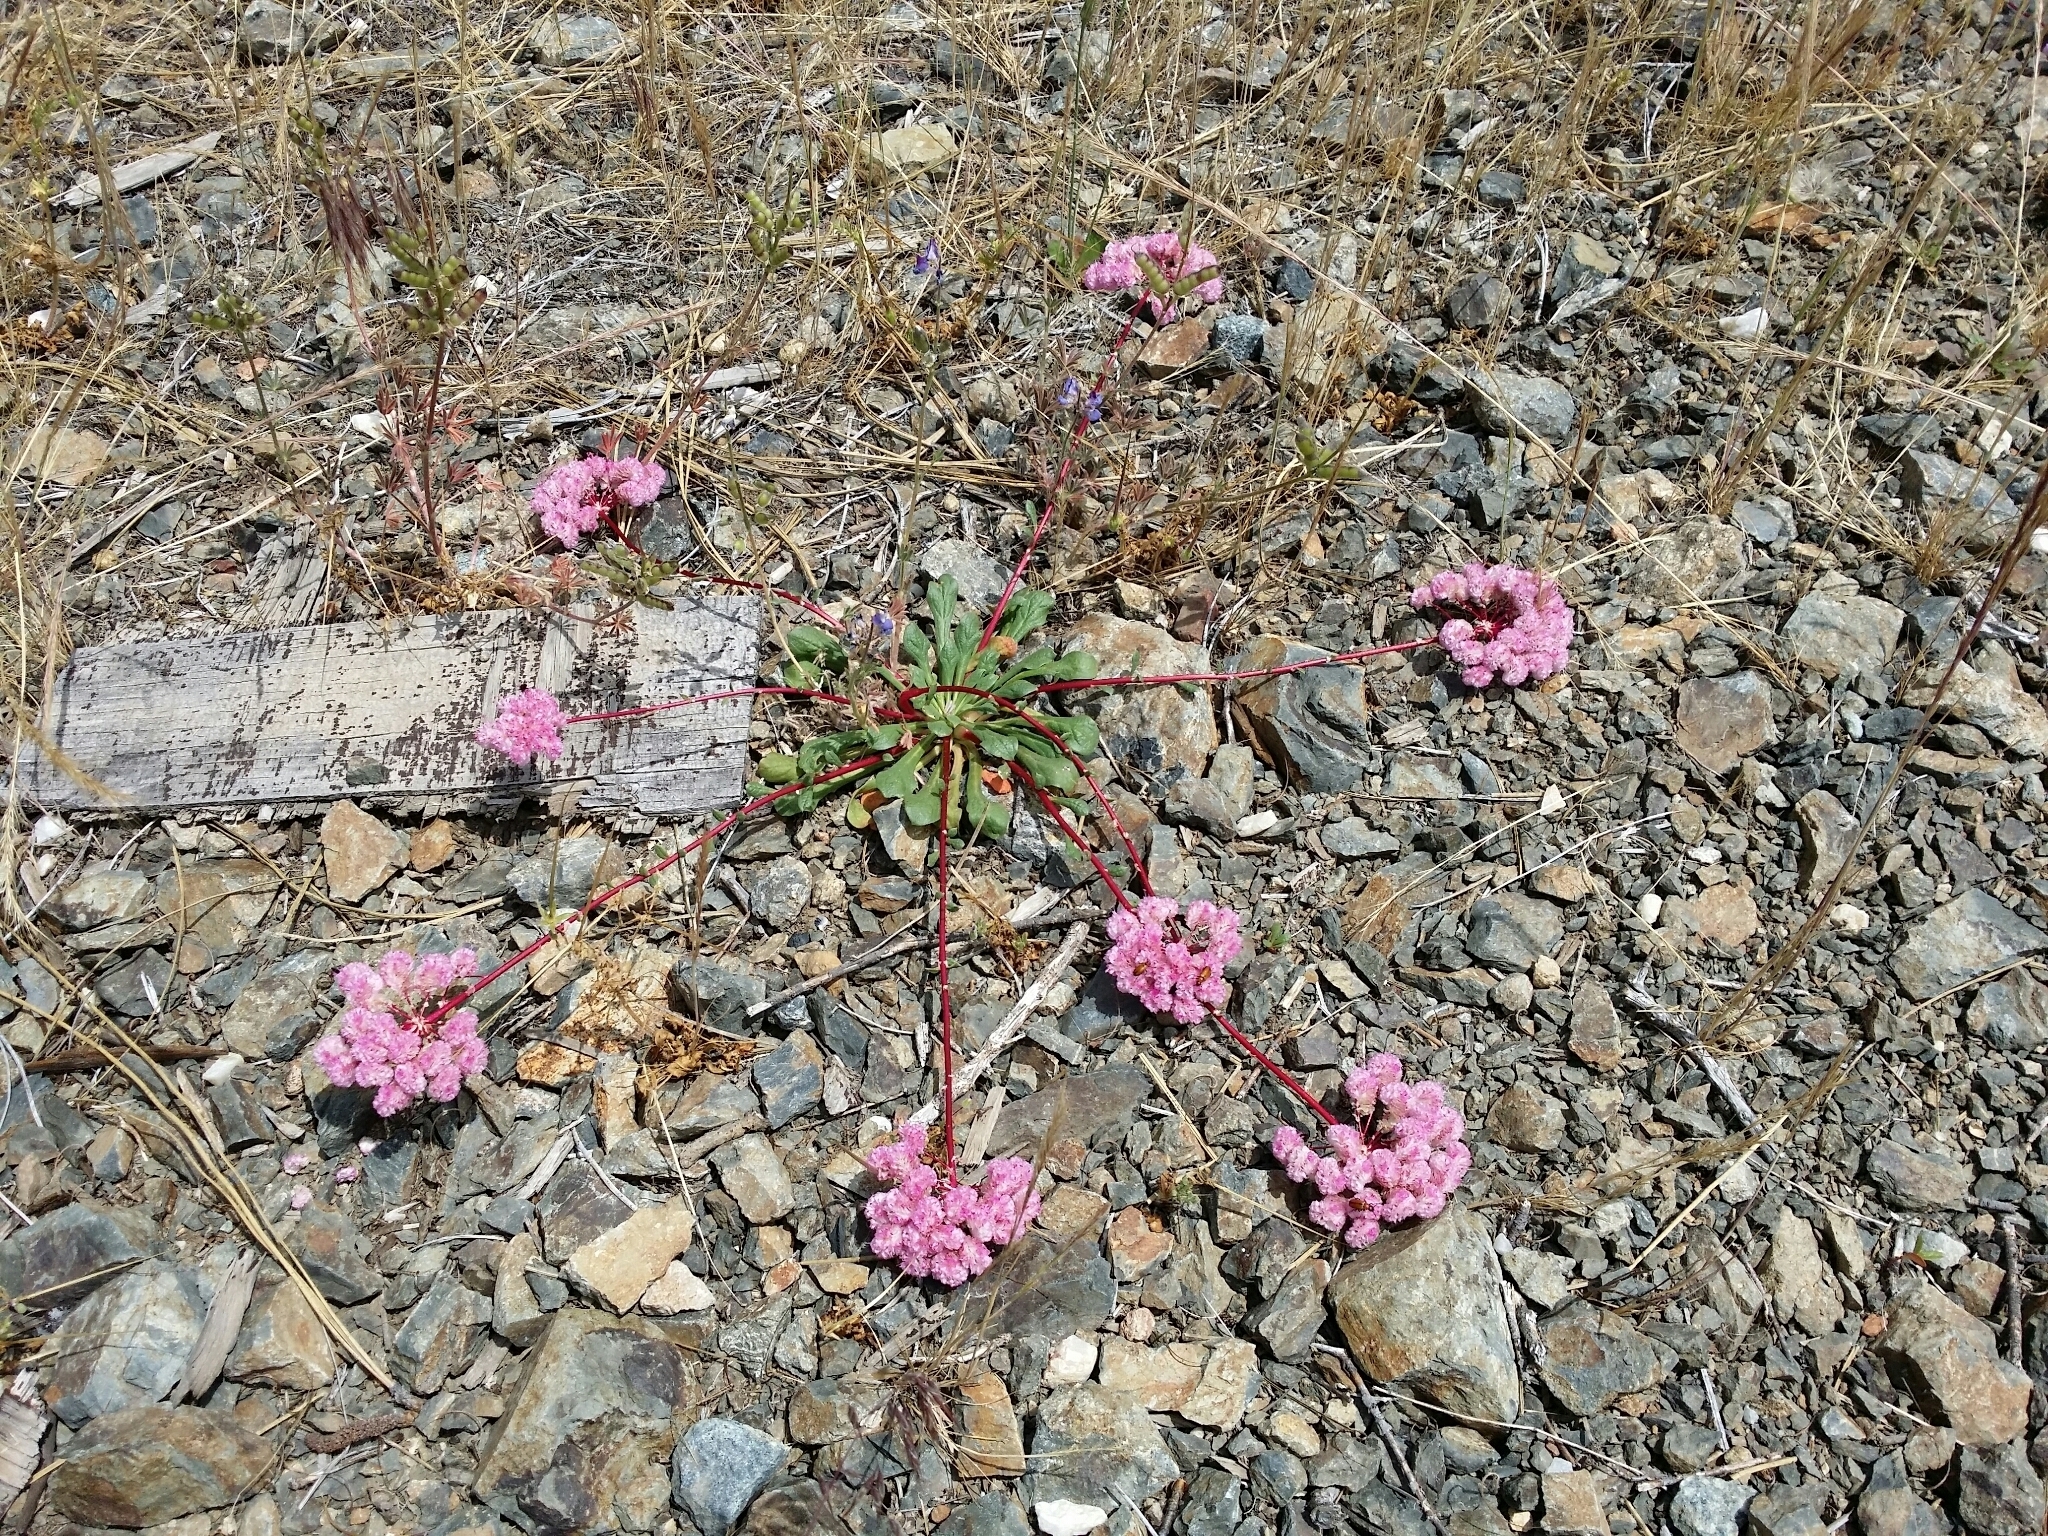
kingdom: Plantae
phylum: Tracheophyta
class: Magnoliopsida
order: Caryophyllales
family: Montiaceae
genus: Calyptridium
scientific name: Calyptridium monospermum
